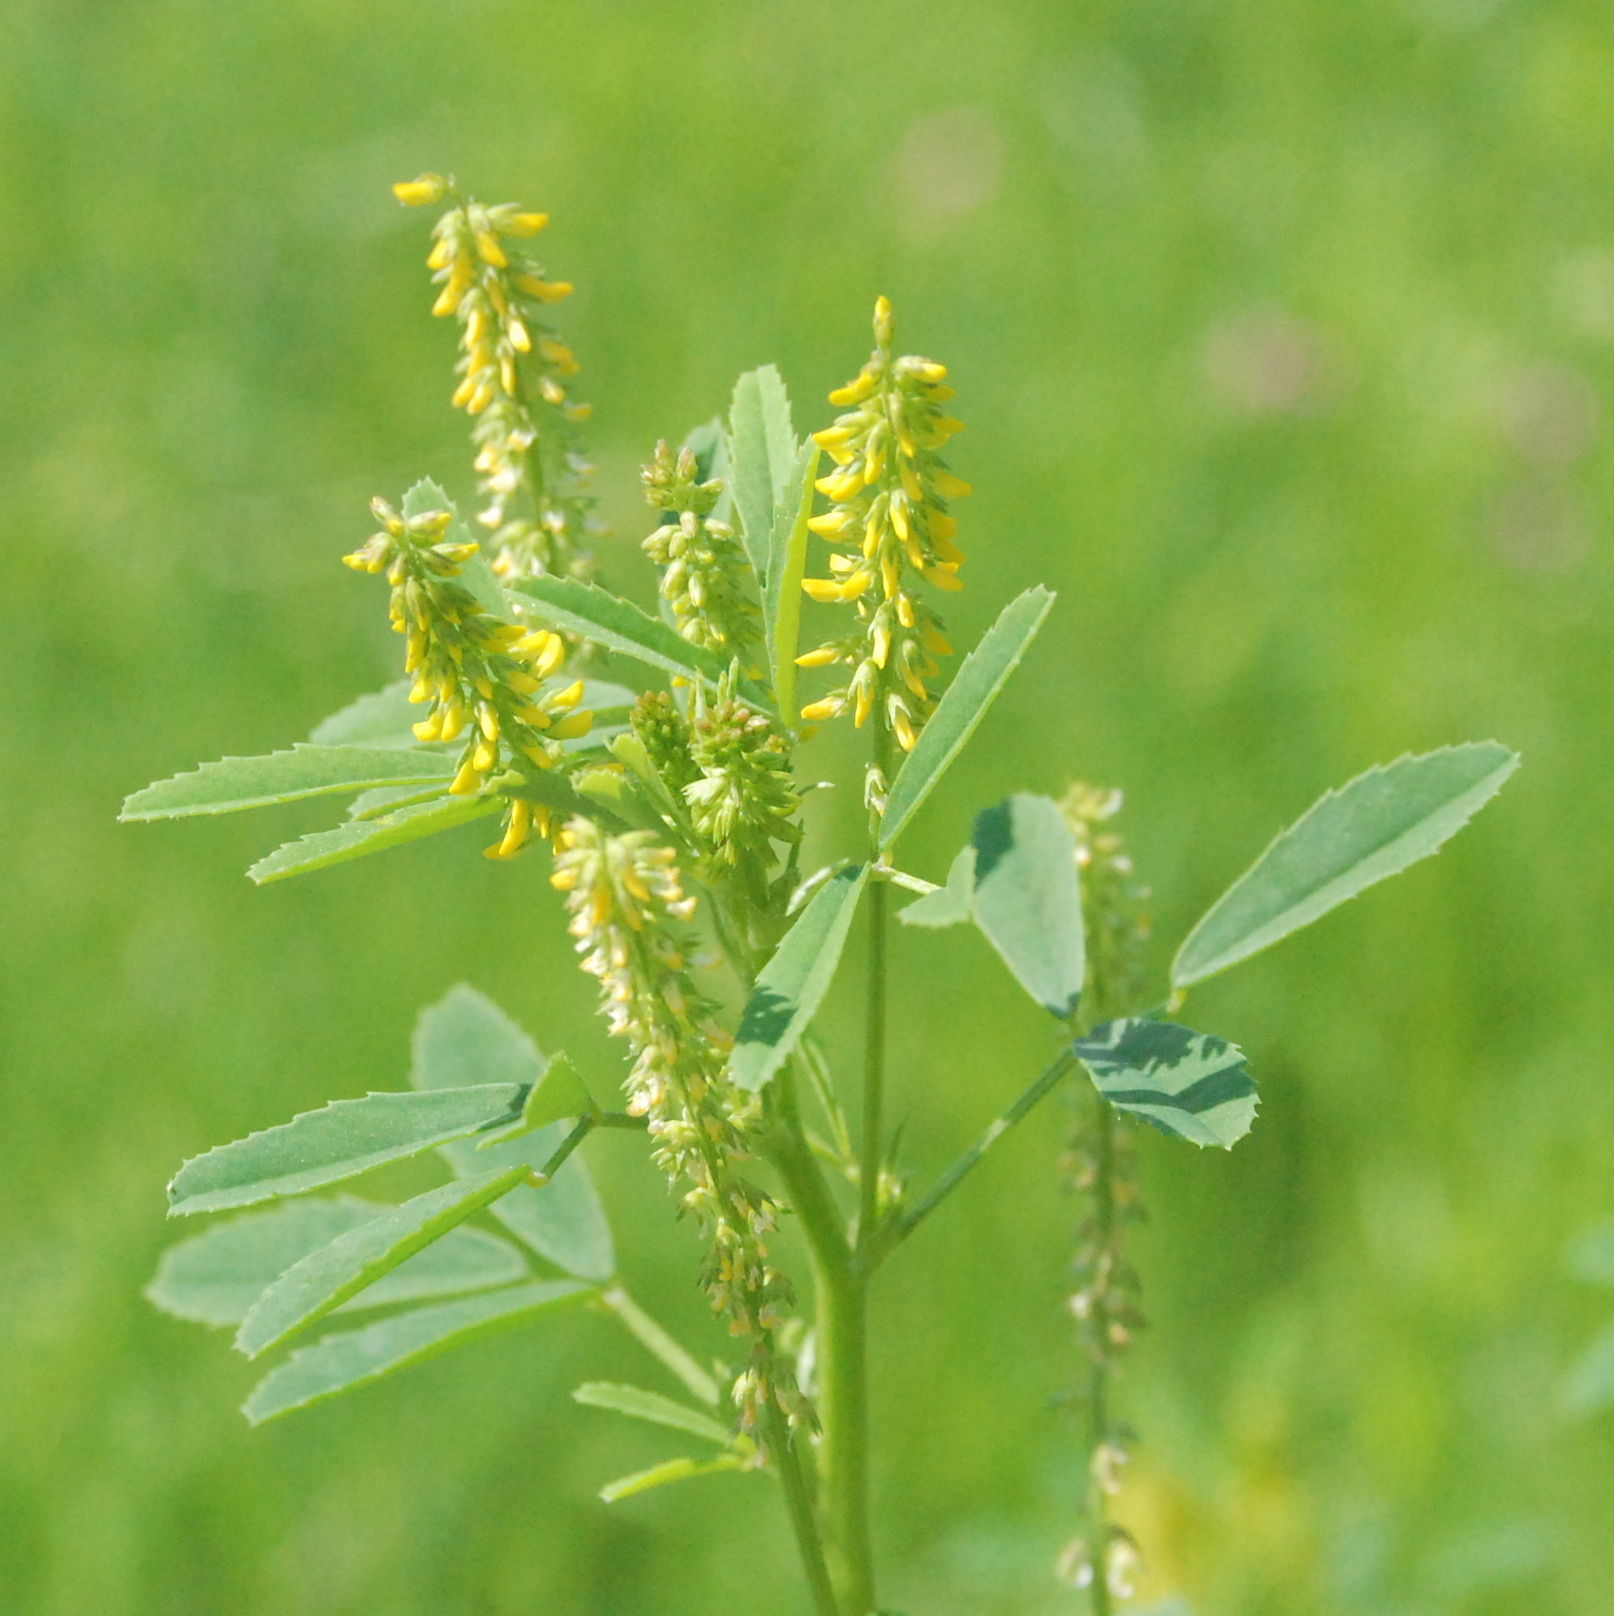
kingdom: Plantae
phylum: Tracheophyta
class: Magnoliopsida
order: Fabales
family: Fabaceae
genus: Melilotus
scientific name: Melilotus indicus
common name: Small melilot
